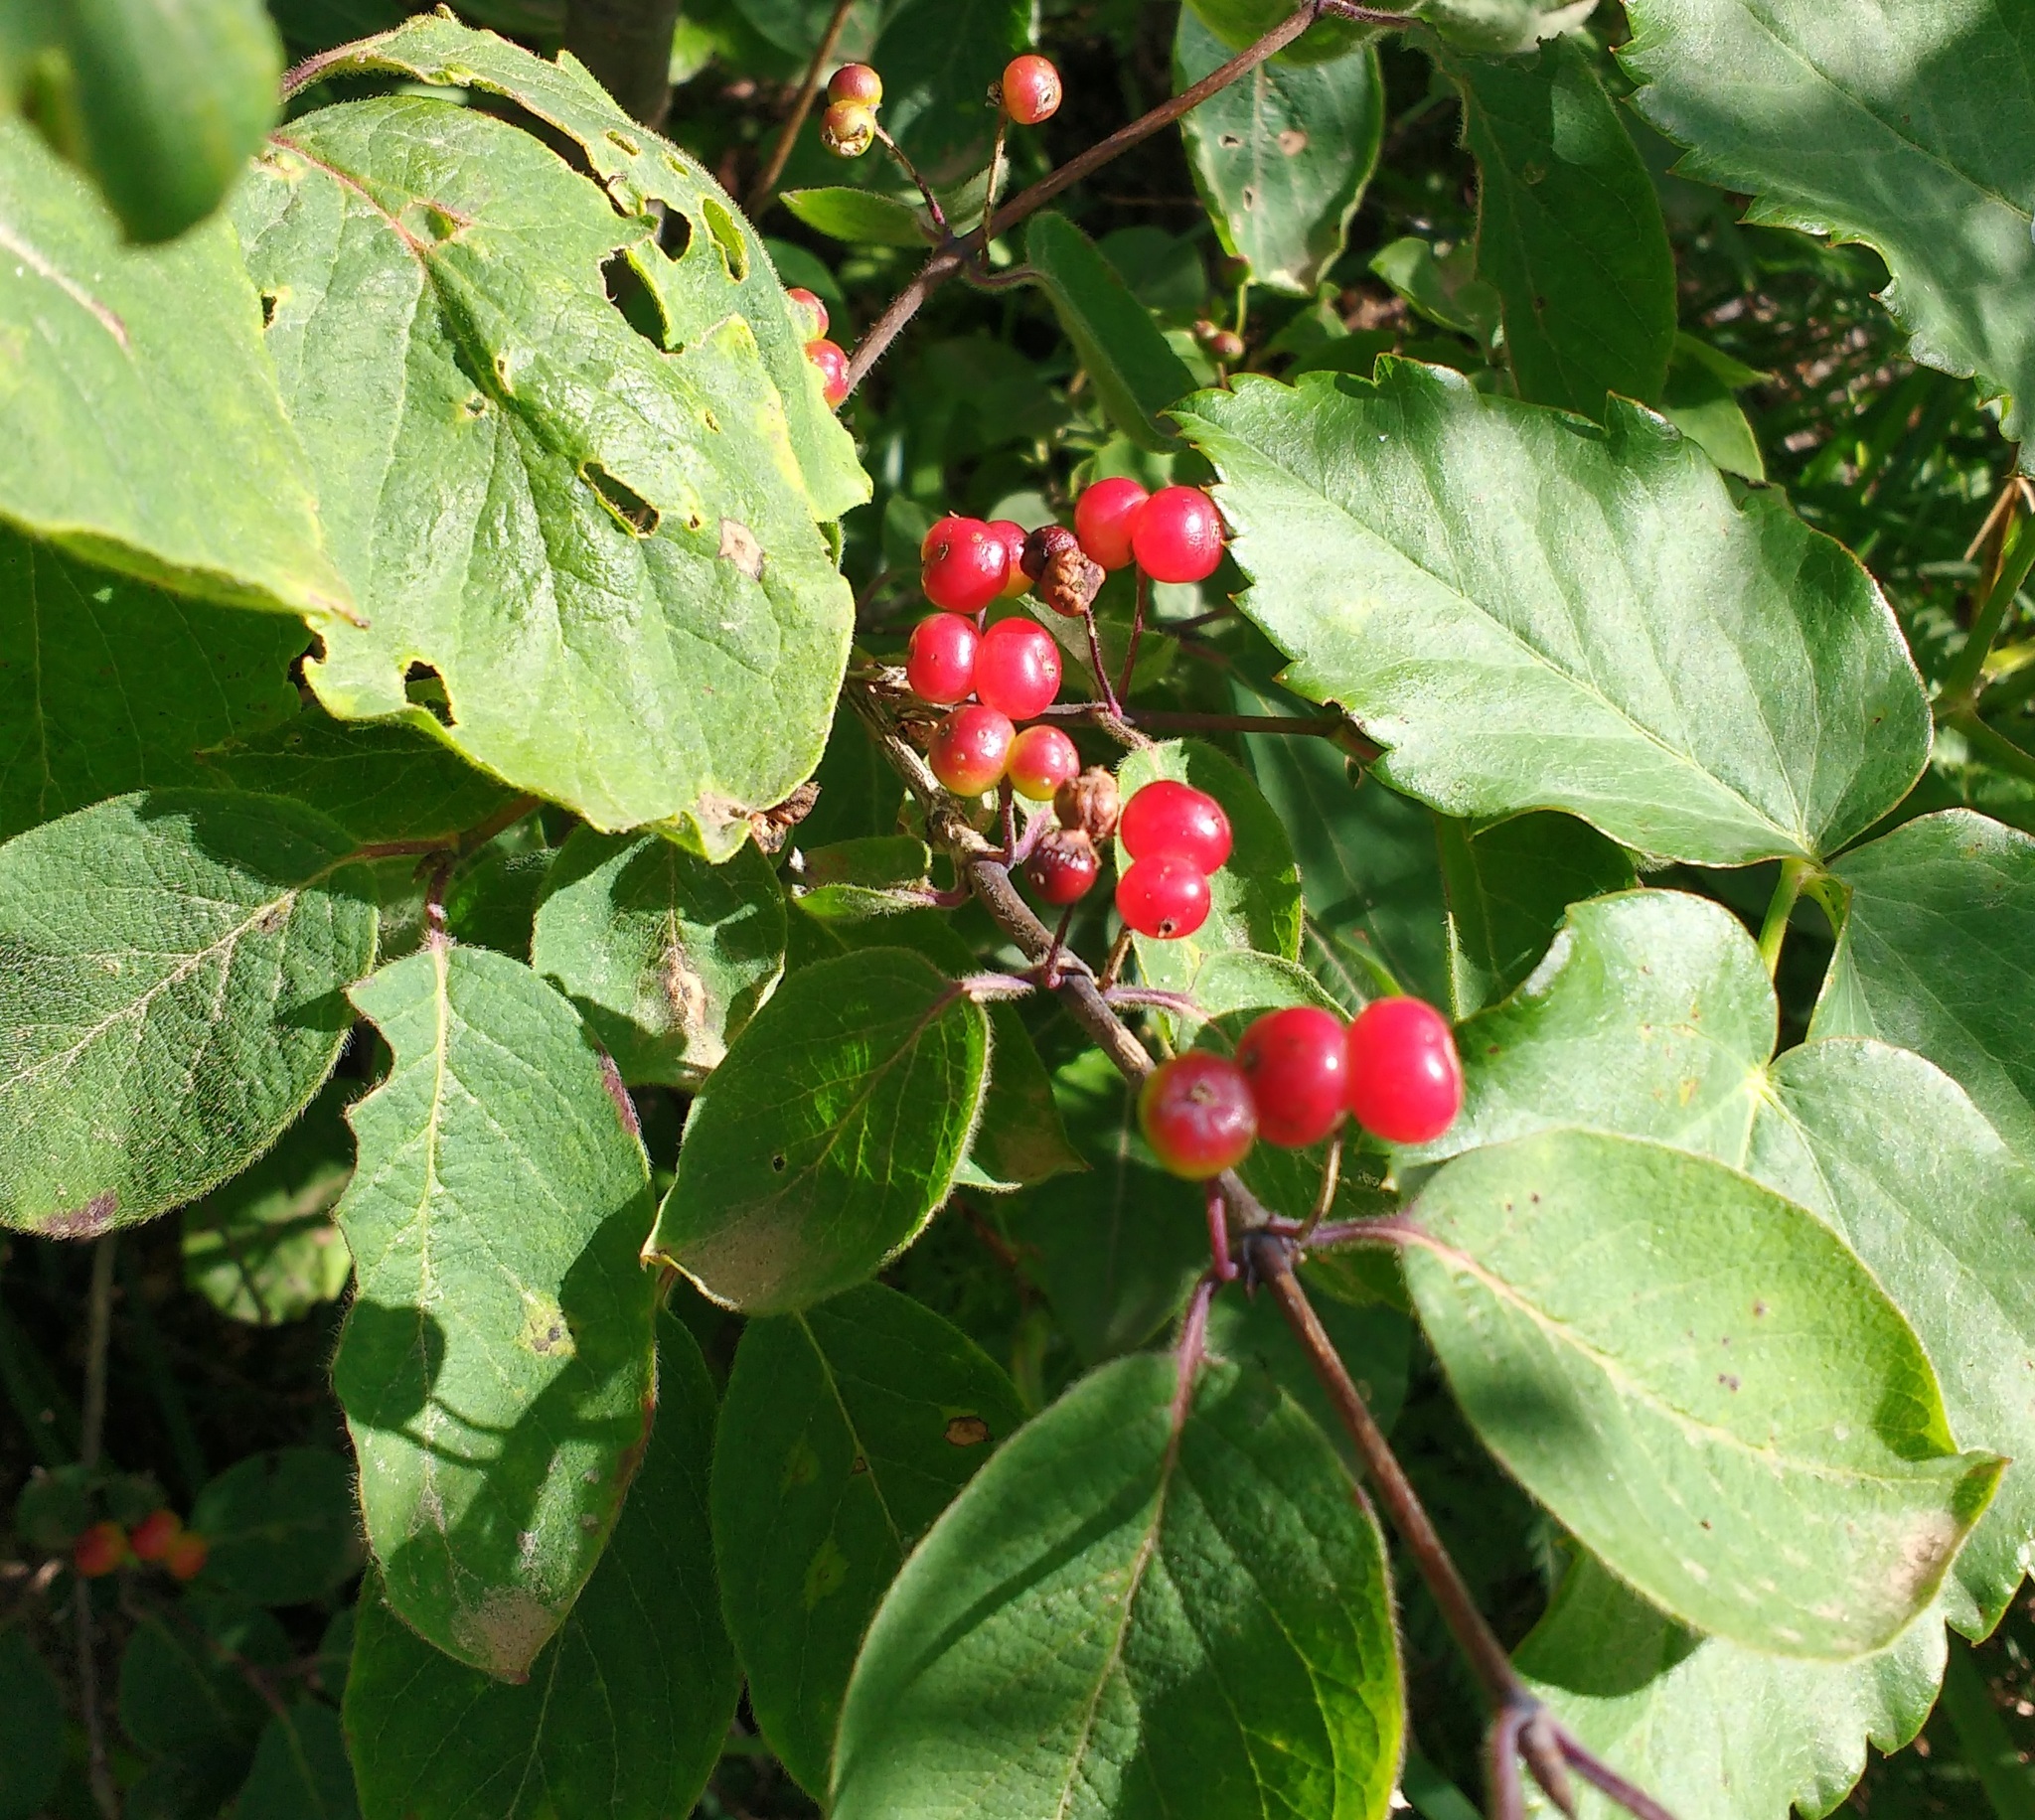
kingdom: Plantae
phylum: Tracheophyta
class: Magnoliopsida
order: Dipsacales
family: Caprifoliaceae
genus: Lonicera
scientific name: Lonicera xylosteum
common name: Fly honeysuckle
